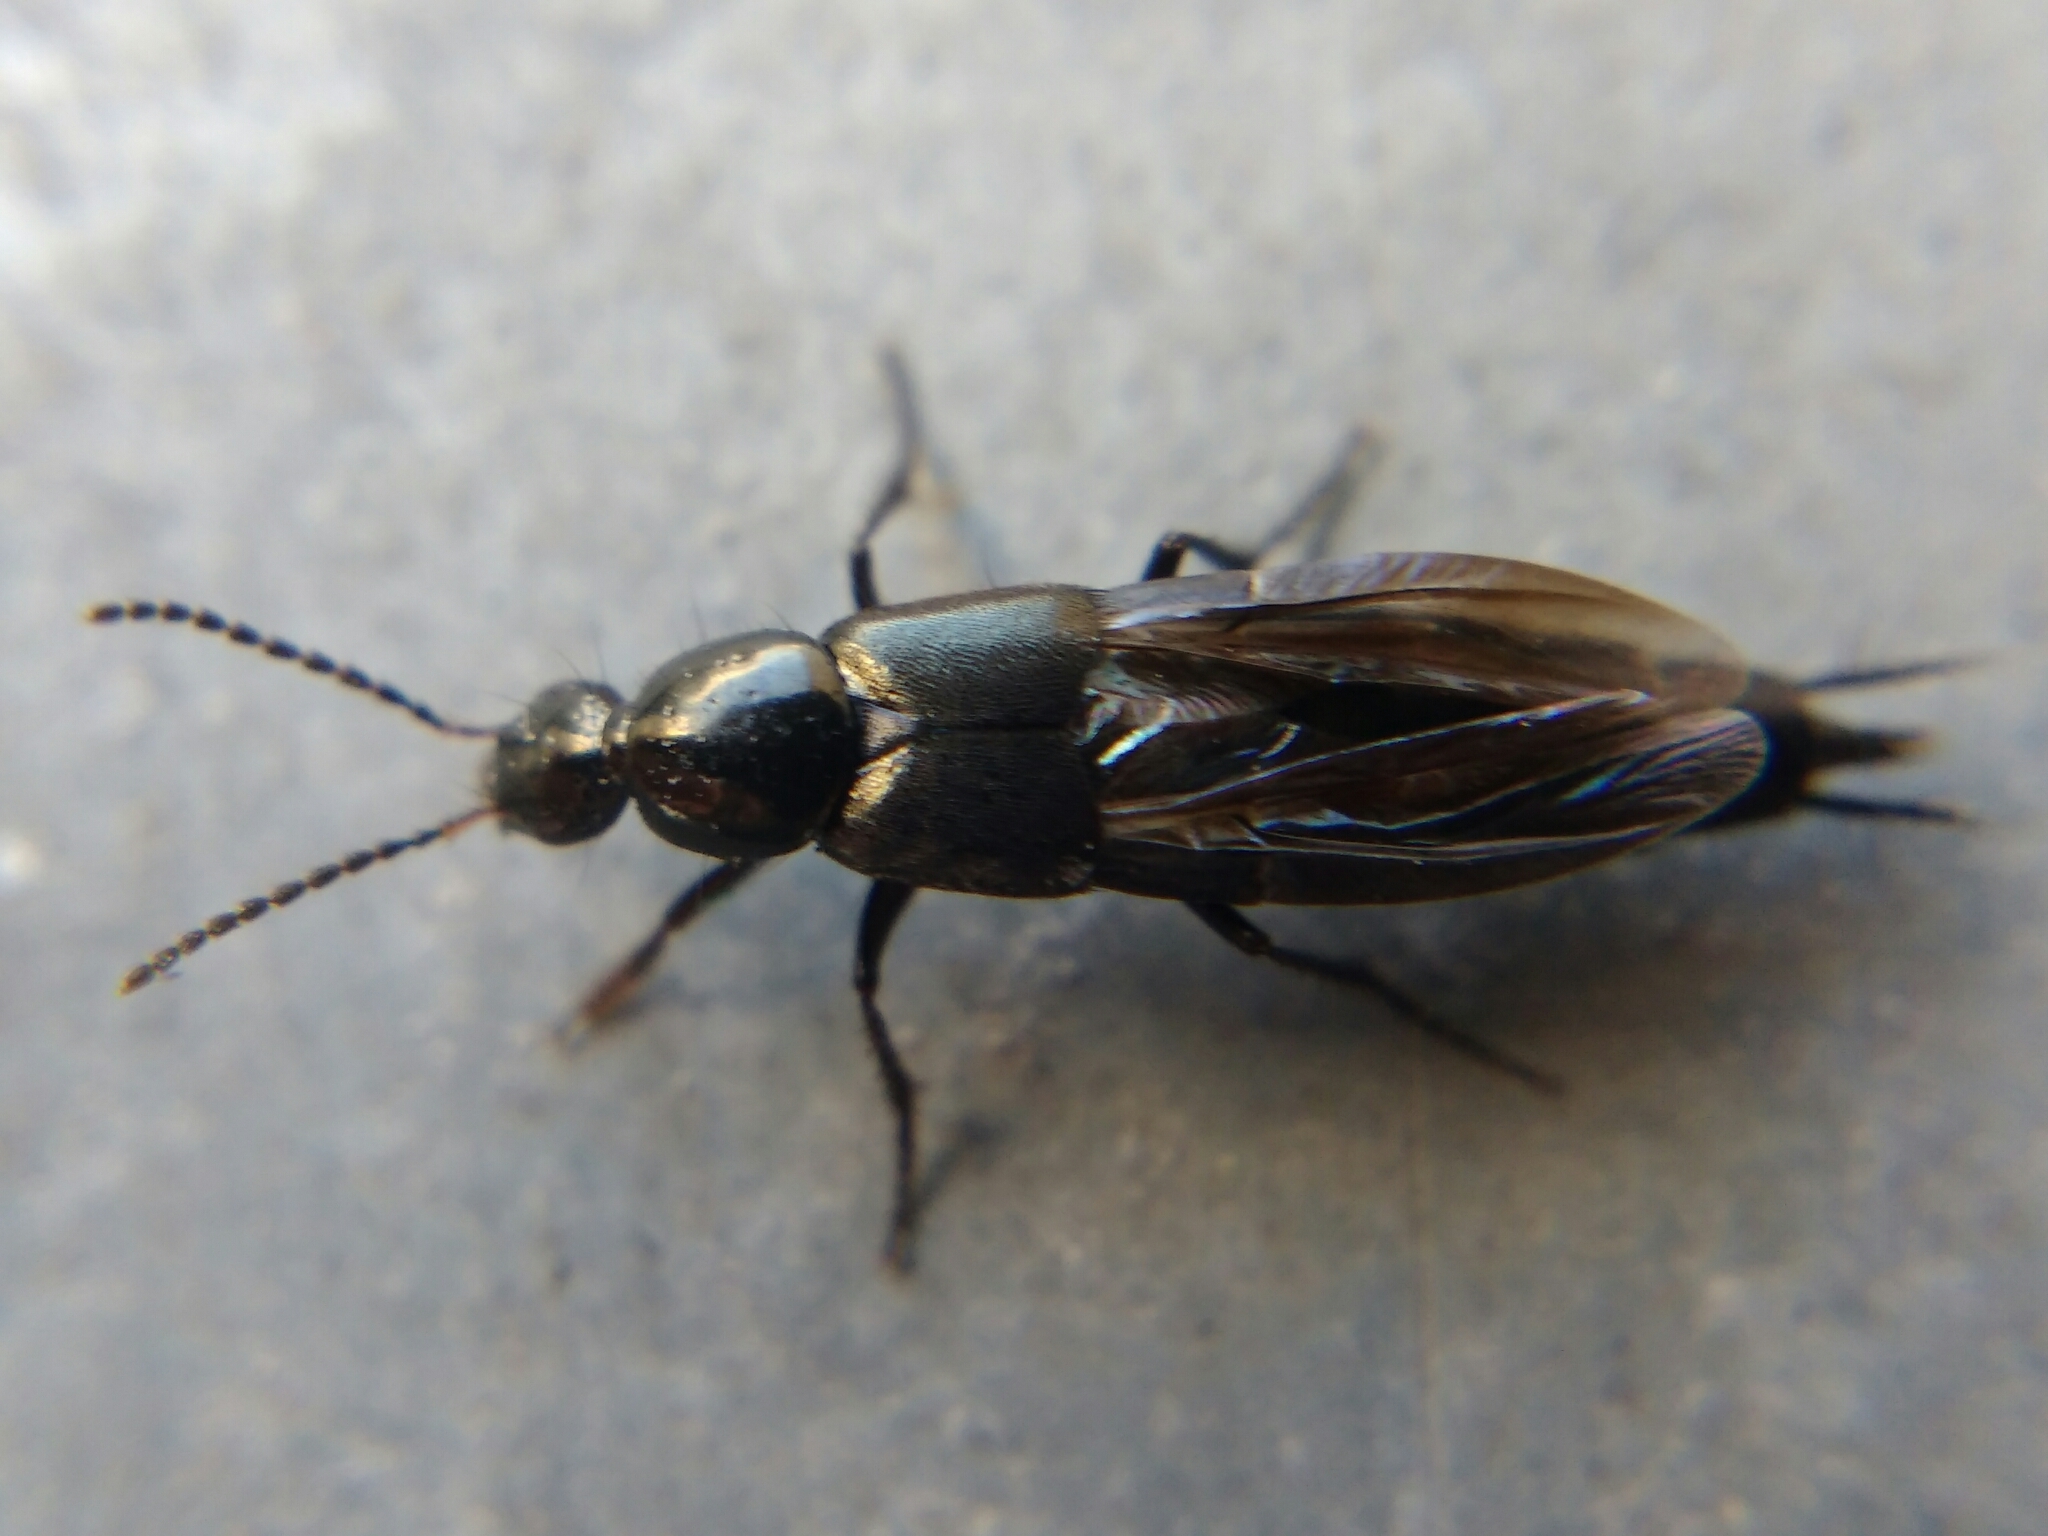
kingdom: Animalia
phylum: Arthropoda
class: Insecta
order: Coleoptera
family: Staphylinidae
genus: Philonthus
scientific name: Philonthus cognatus
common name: Staph beetle
